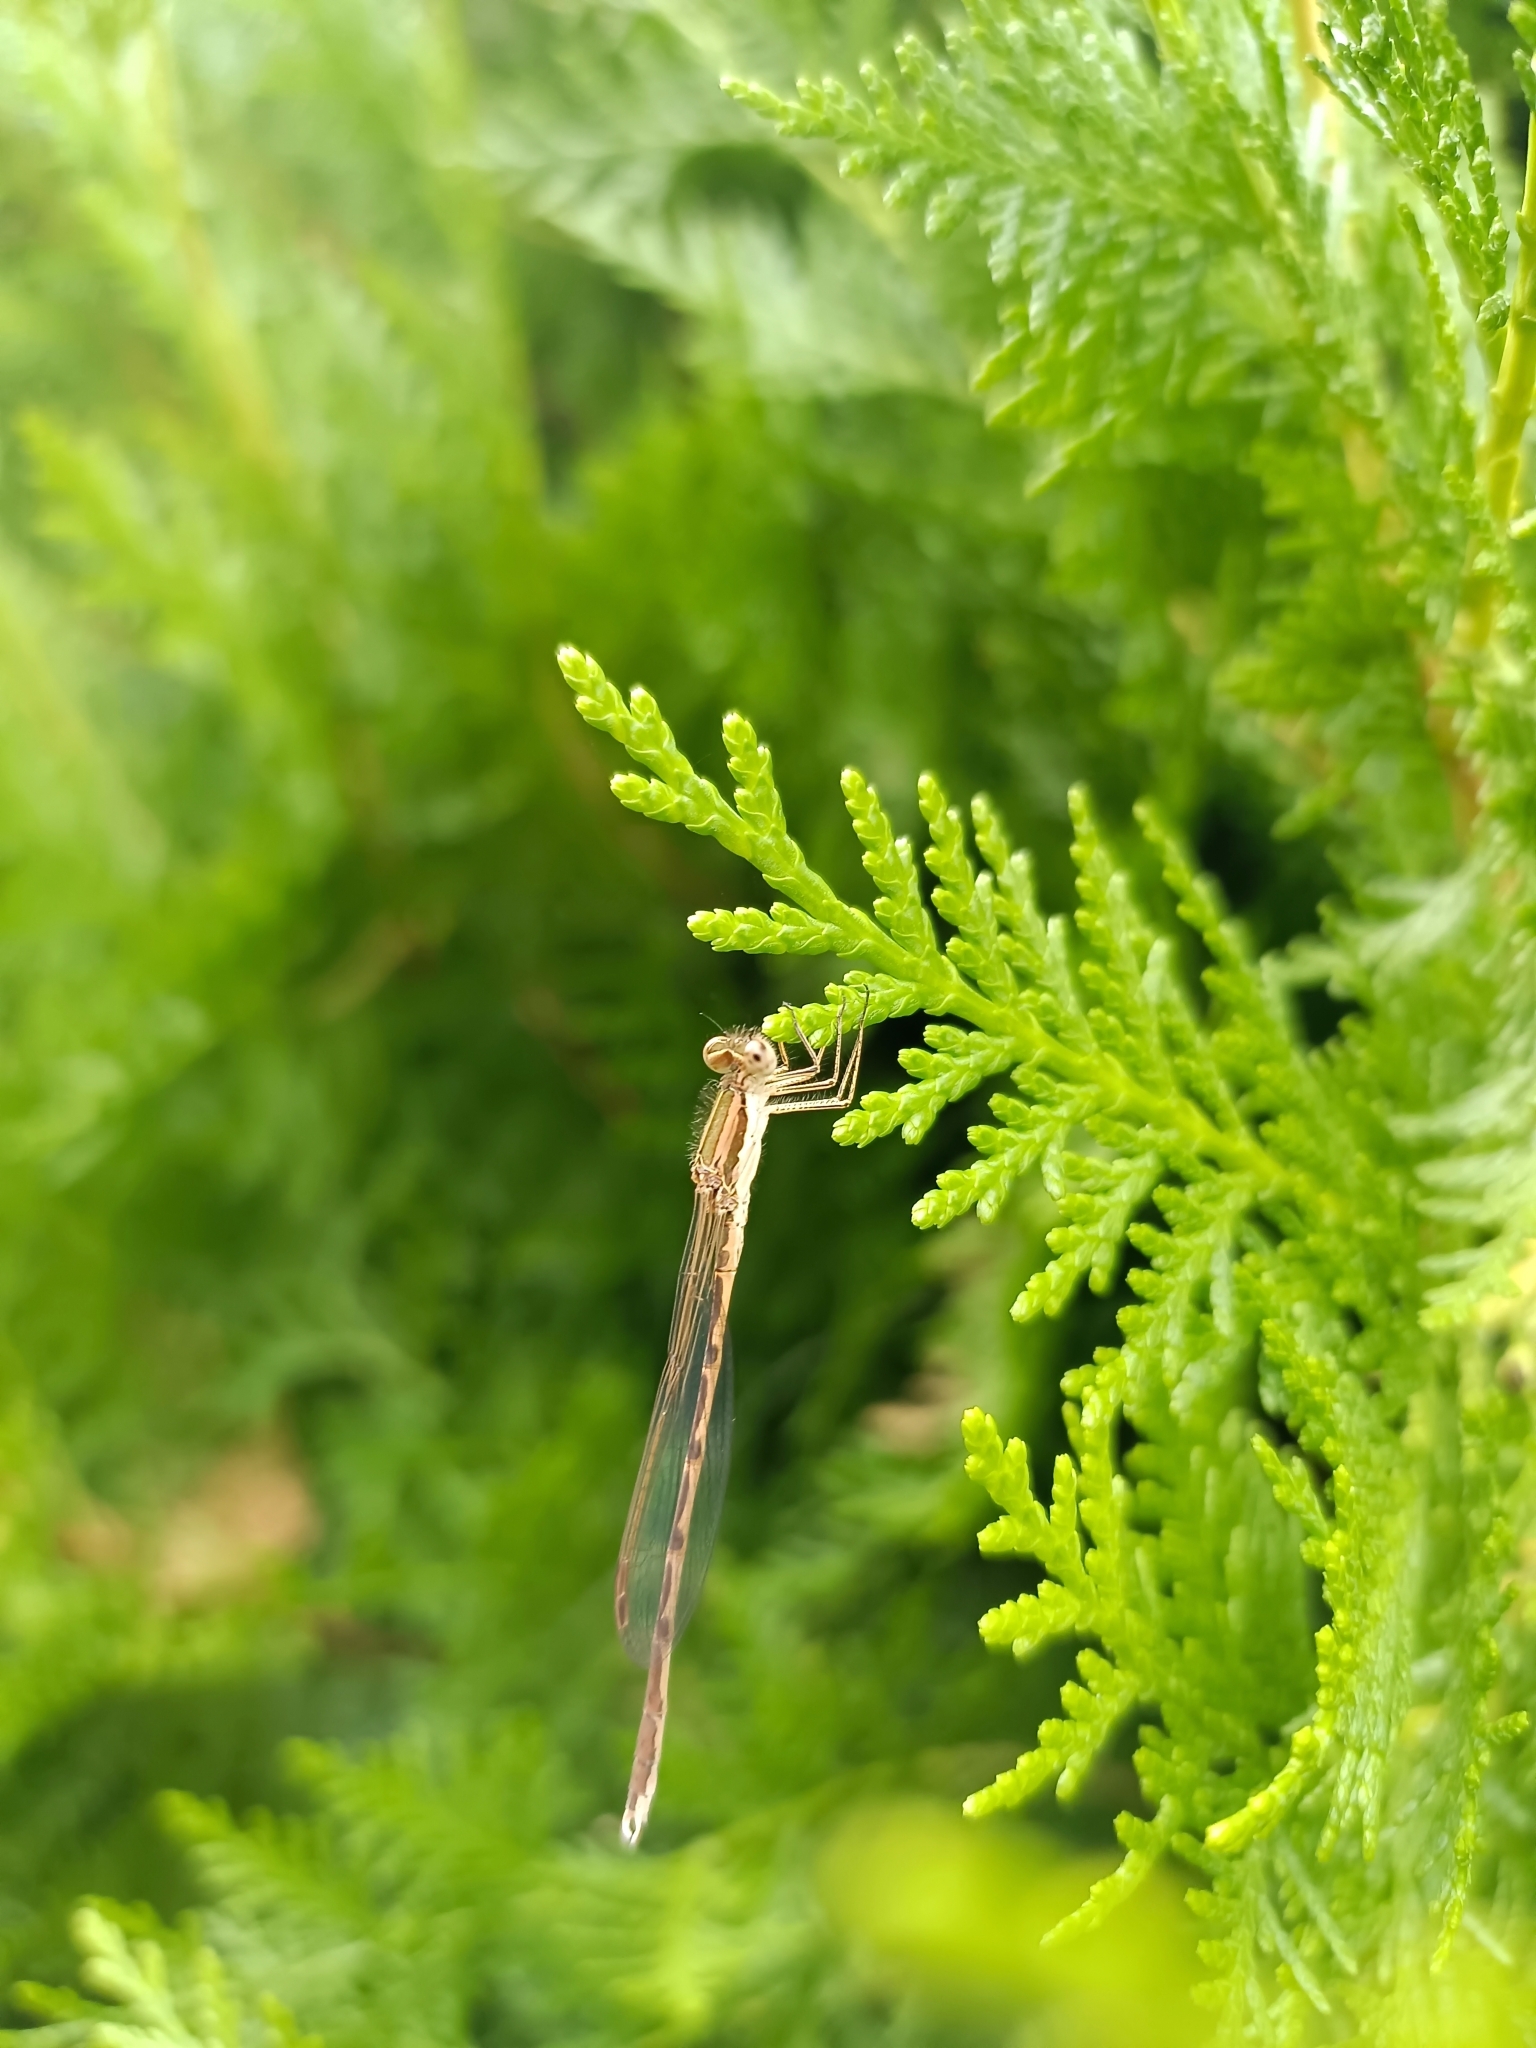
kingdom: Animalia
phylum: Arthropoda
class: Insecta
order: Odonata
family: Lestidae
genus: Sympecma
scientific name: Sympecma fusca
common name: Common winter damsel
